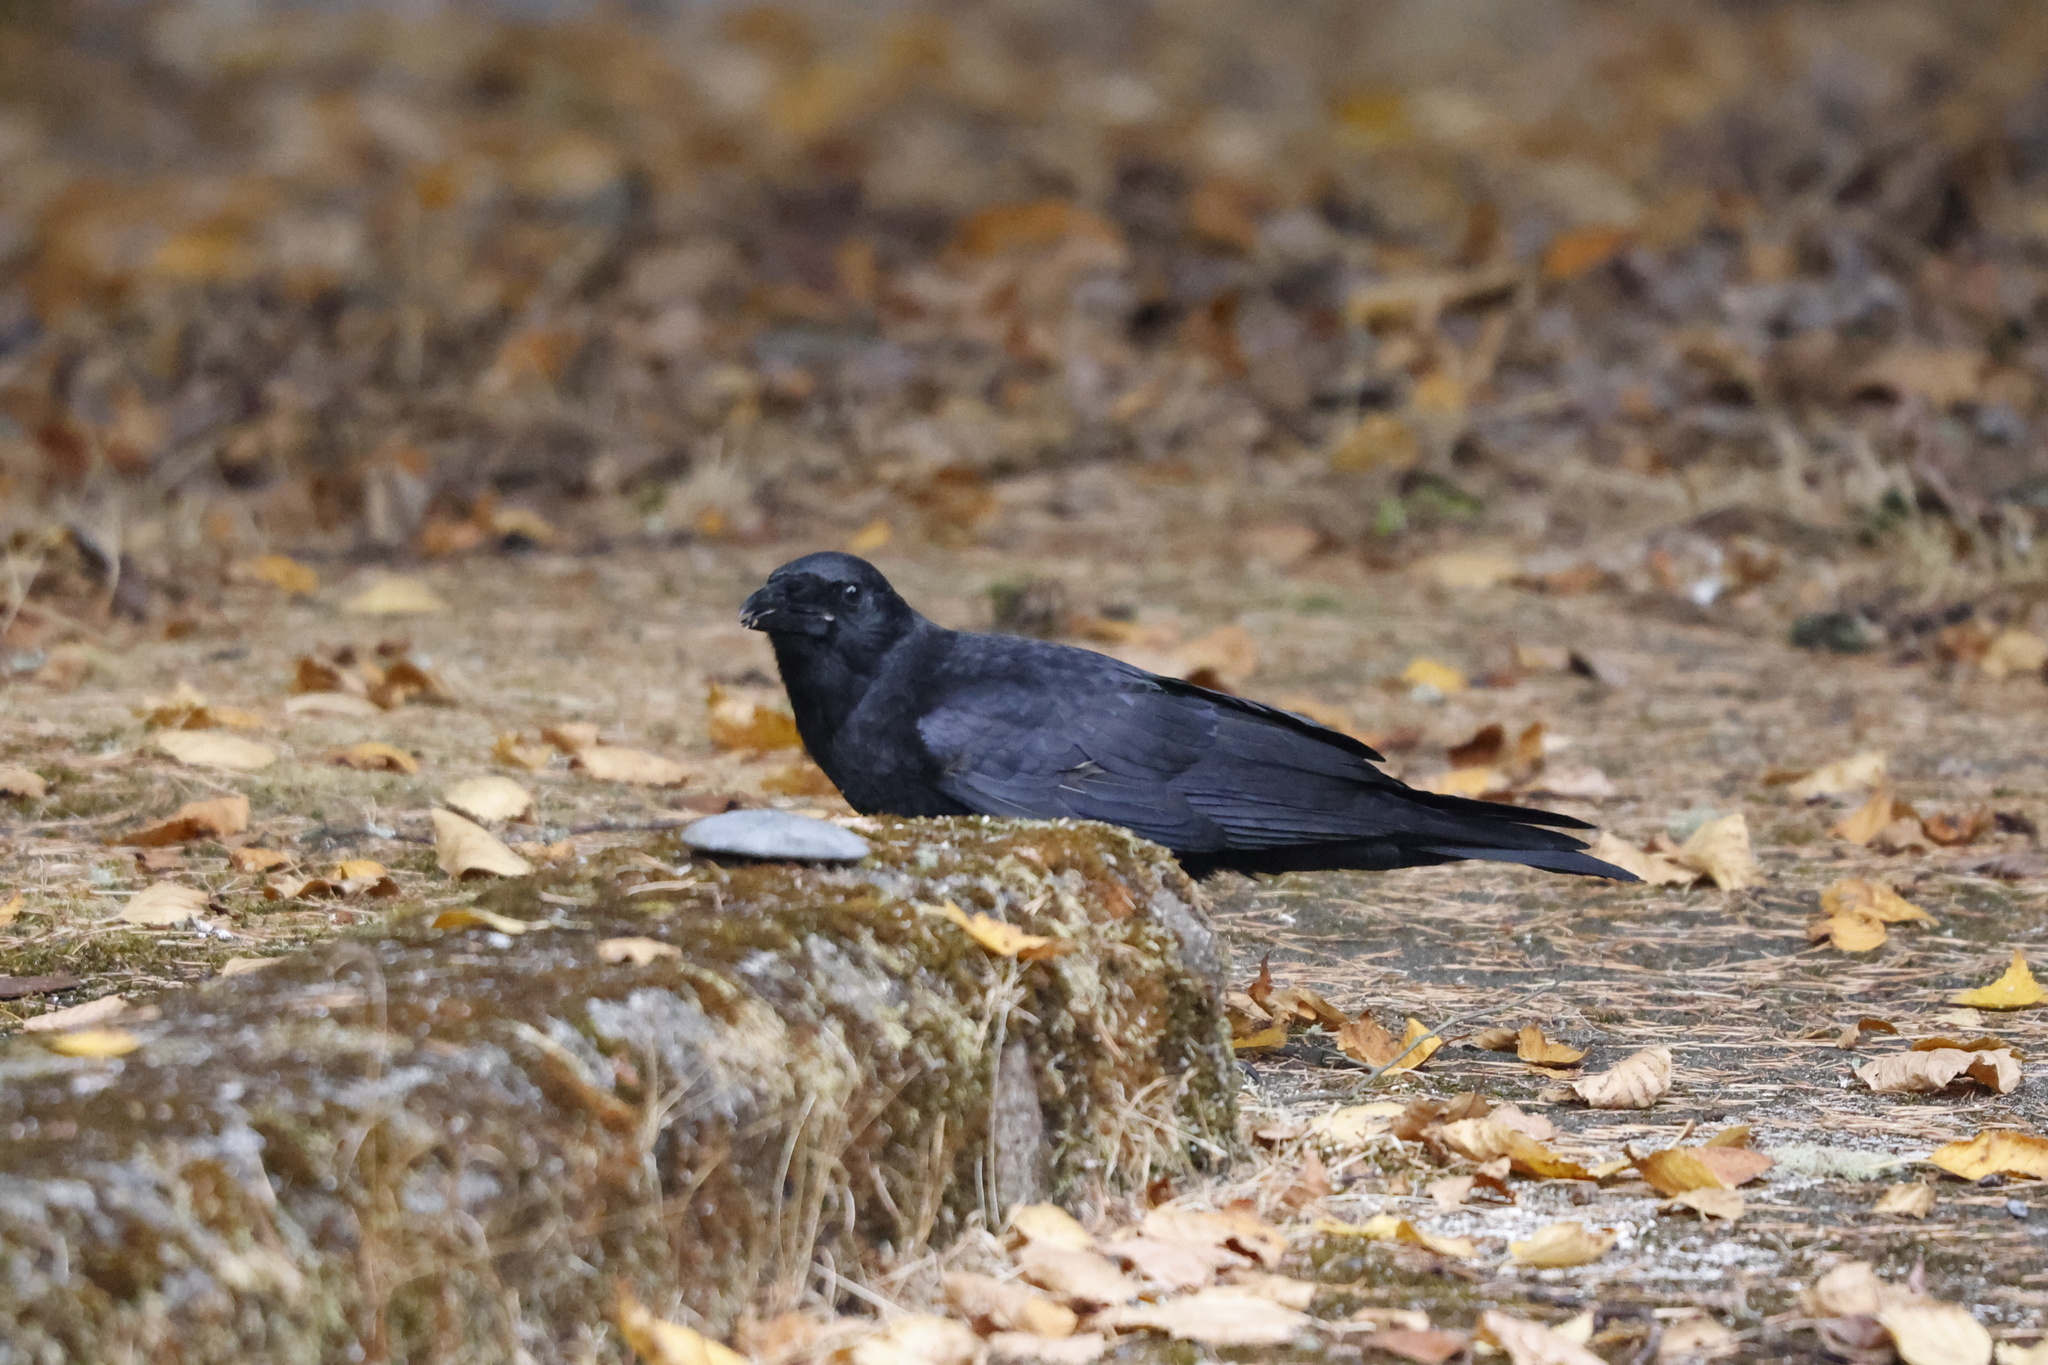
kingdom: Animalia
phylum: Chordata
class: Aves
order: Passeriformes
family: Corvidae
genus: Corvus
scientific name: Corvus brachyrhynchos
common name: American crow
